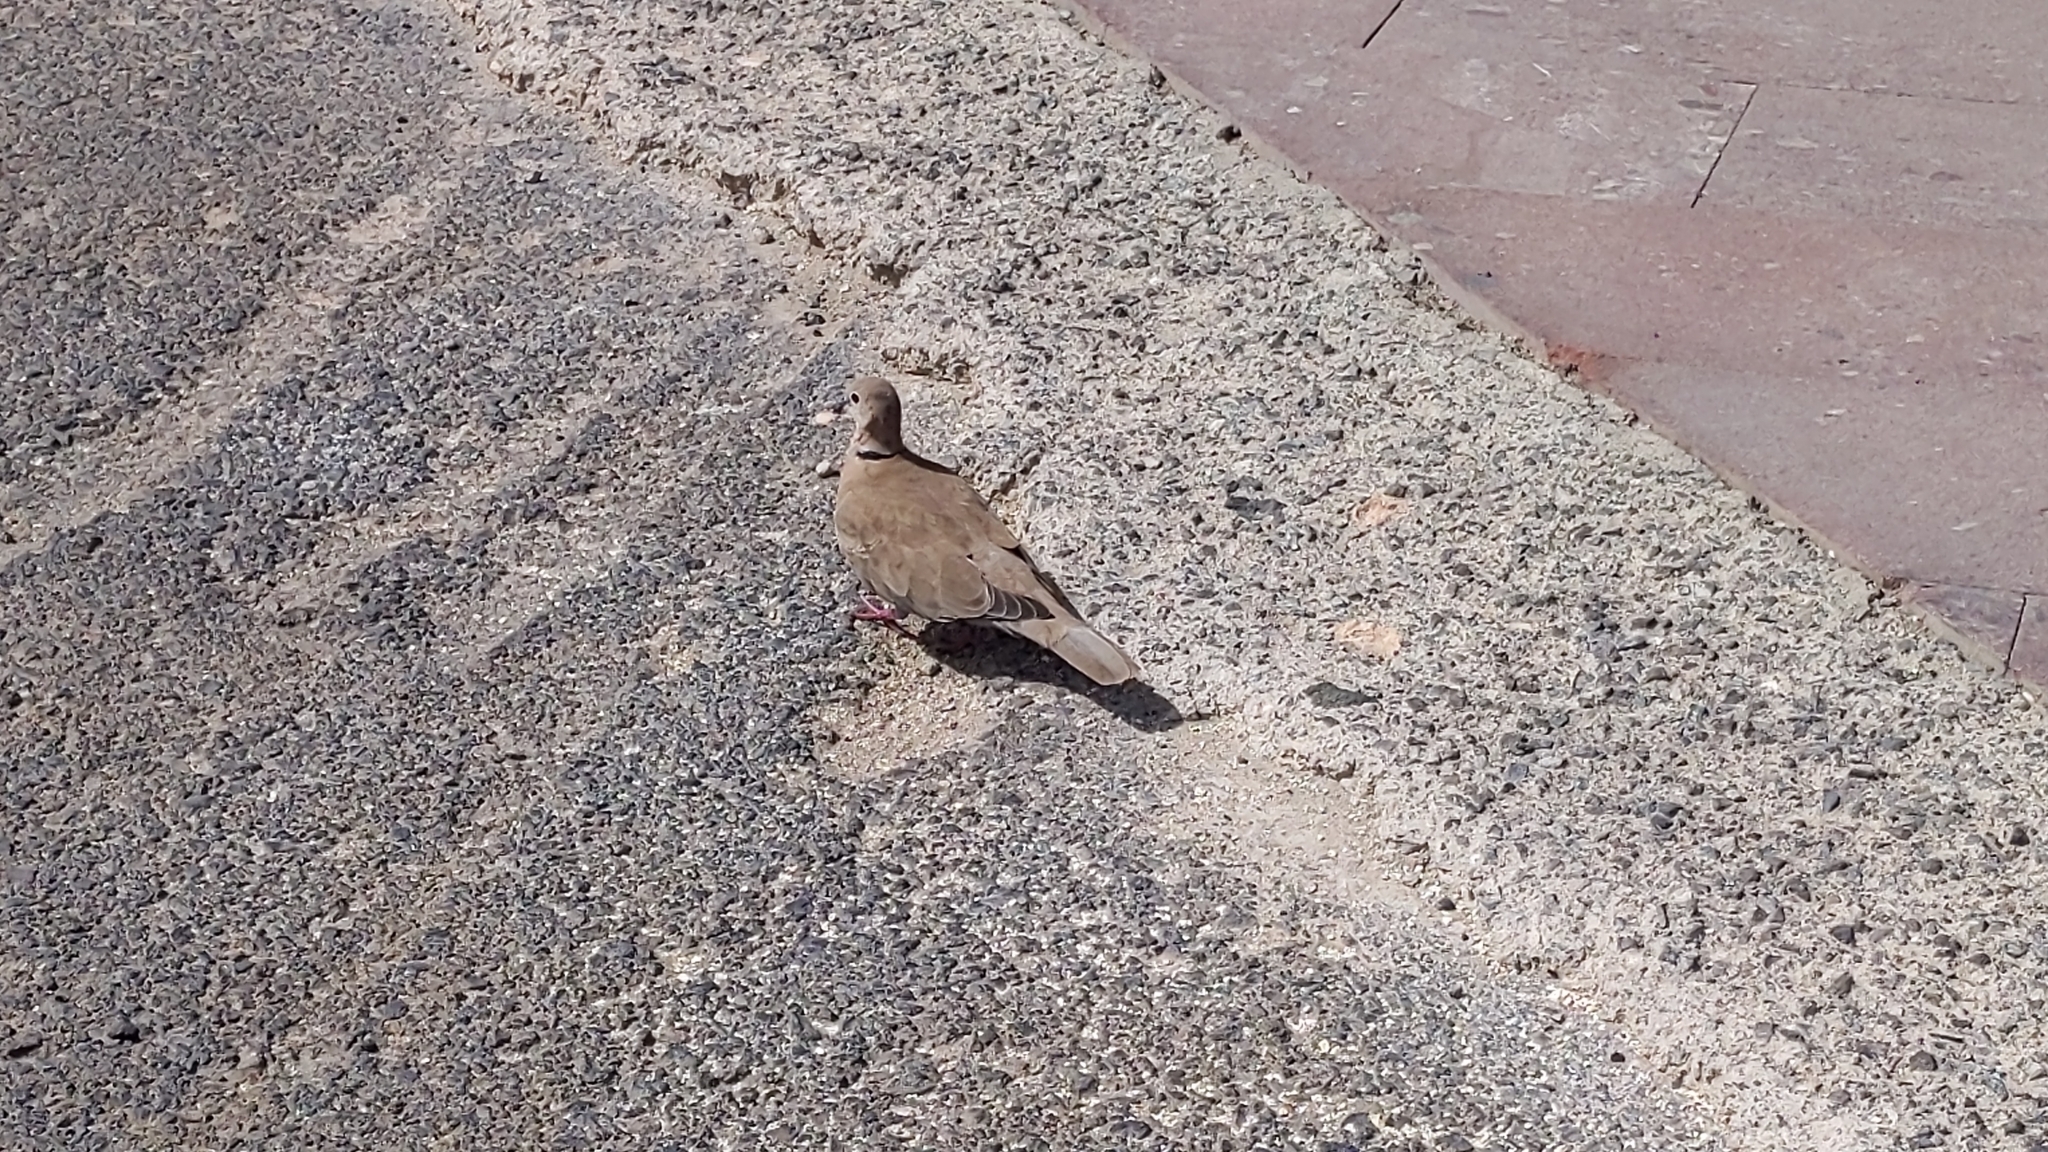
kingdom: Animalia
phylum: Chordata
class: Aves
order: Columbiformes
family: Columbidae
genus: Streptopelia
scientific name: Streptopelia decaocto
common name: Eurasian collared dove
